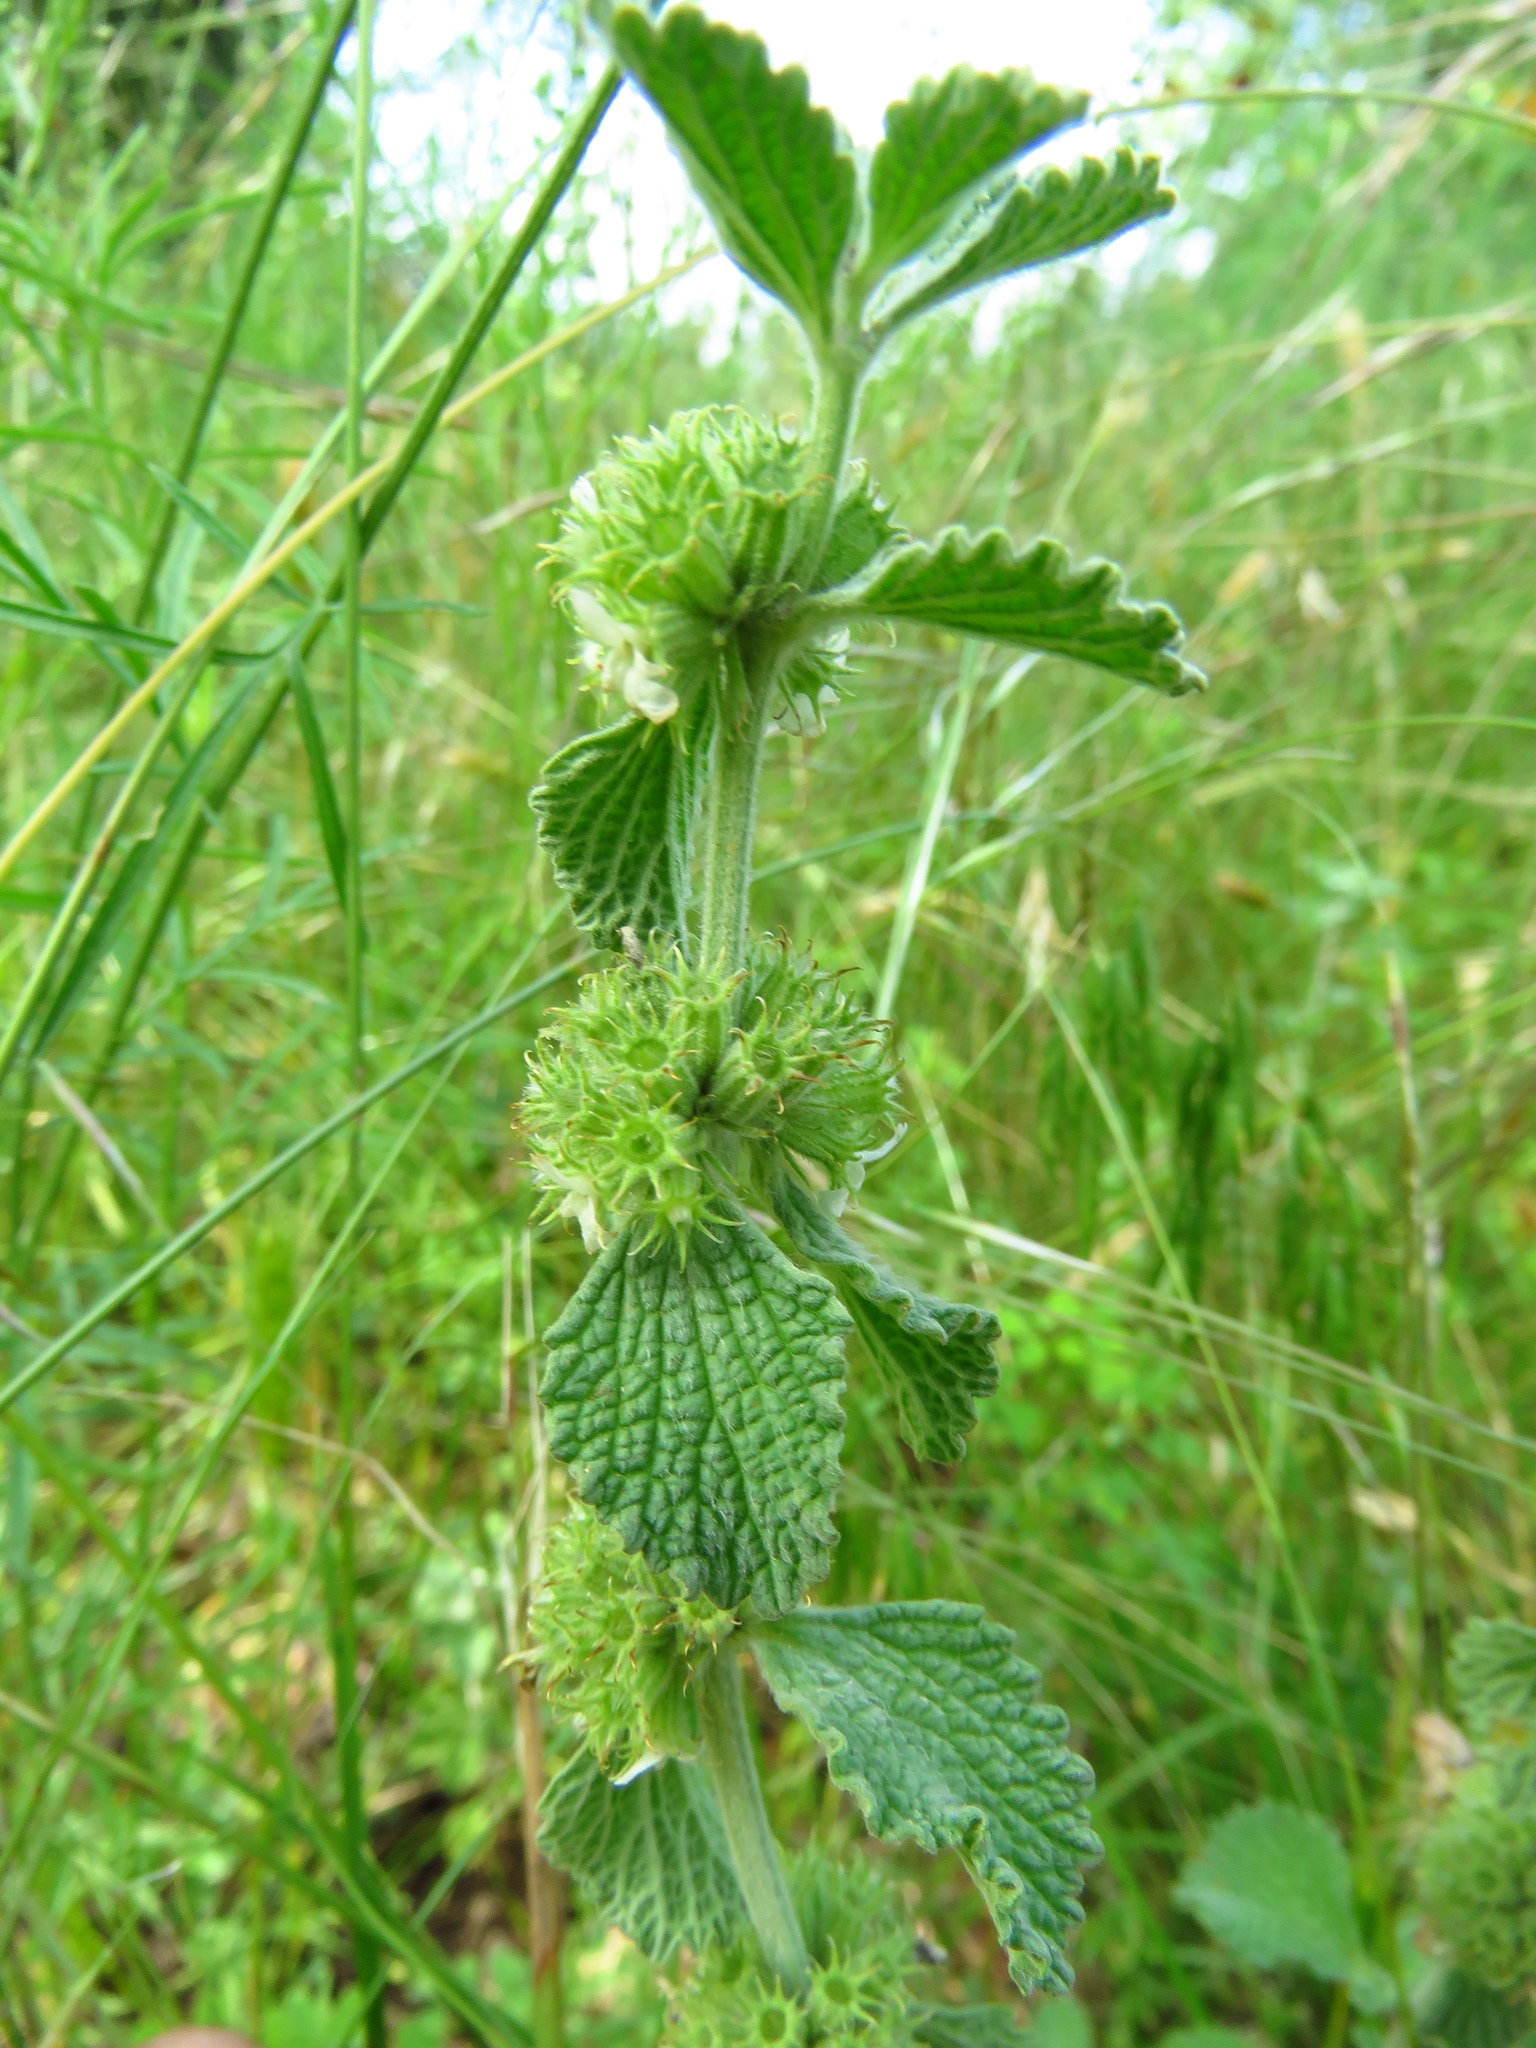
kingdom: Plantae
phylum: Tracheophyta
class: Magnoliopsida
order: Lamiales
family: Lamiaceae
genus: Marrubium
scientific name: Marrubium vulgare
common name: Horehound
